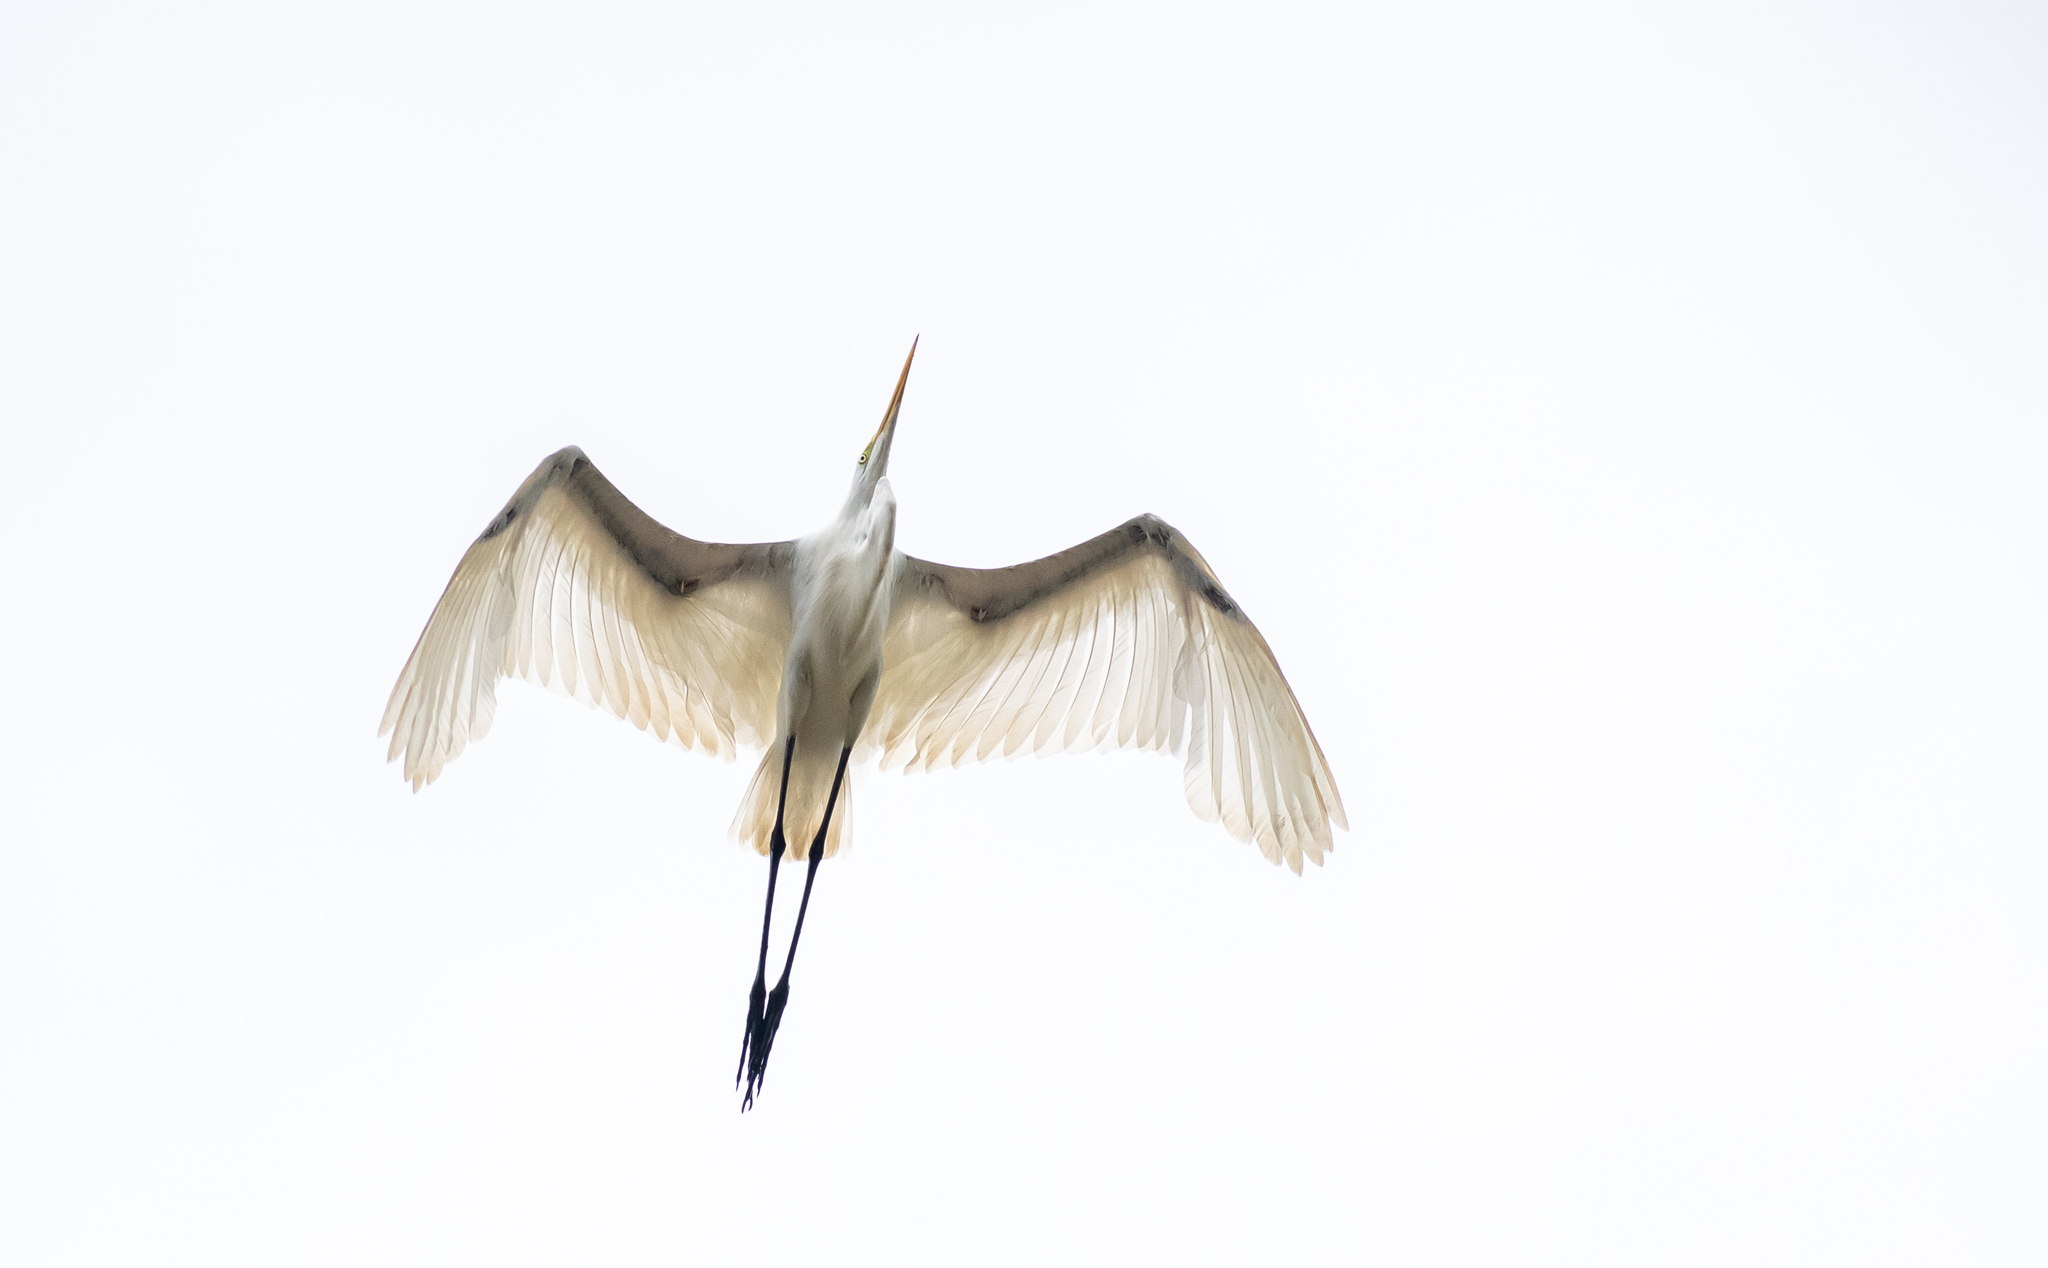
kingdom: Animalia
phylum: Chordata
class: Aves
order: Pelecaniformes
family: Ardeidae
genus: Ardea
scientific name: Ardea alba
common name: Great egret
